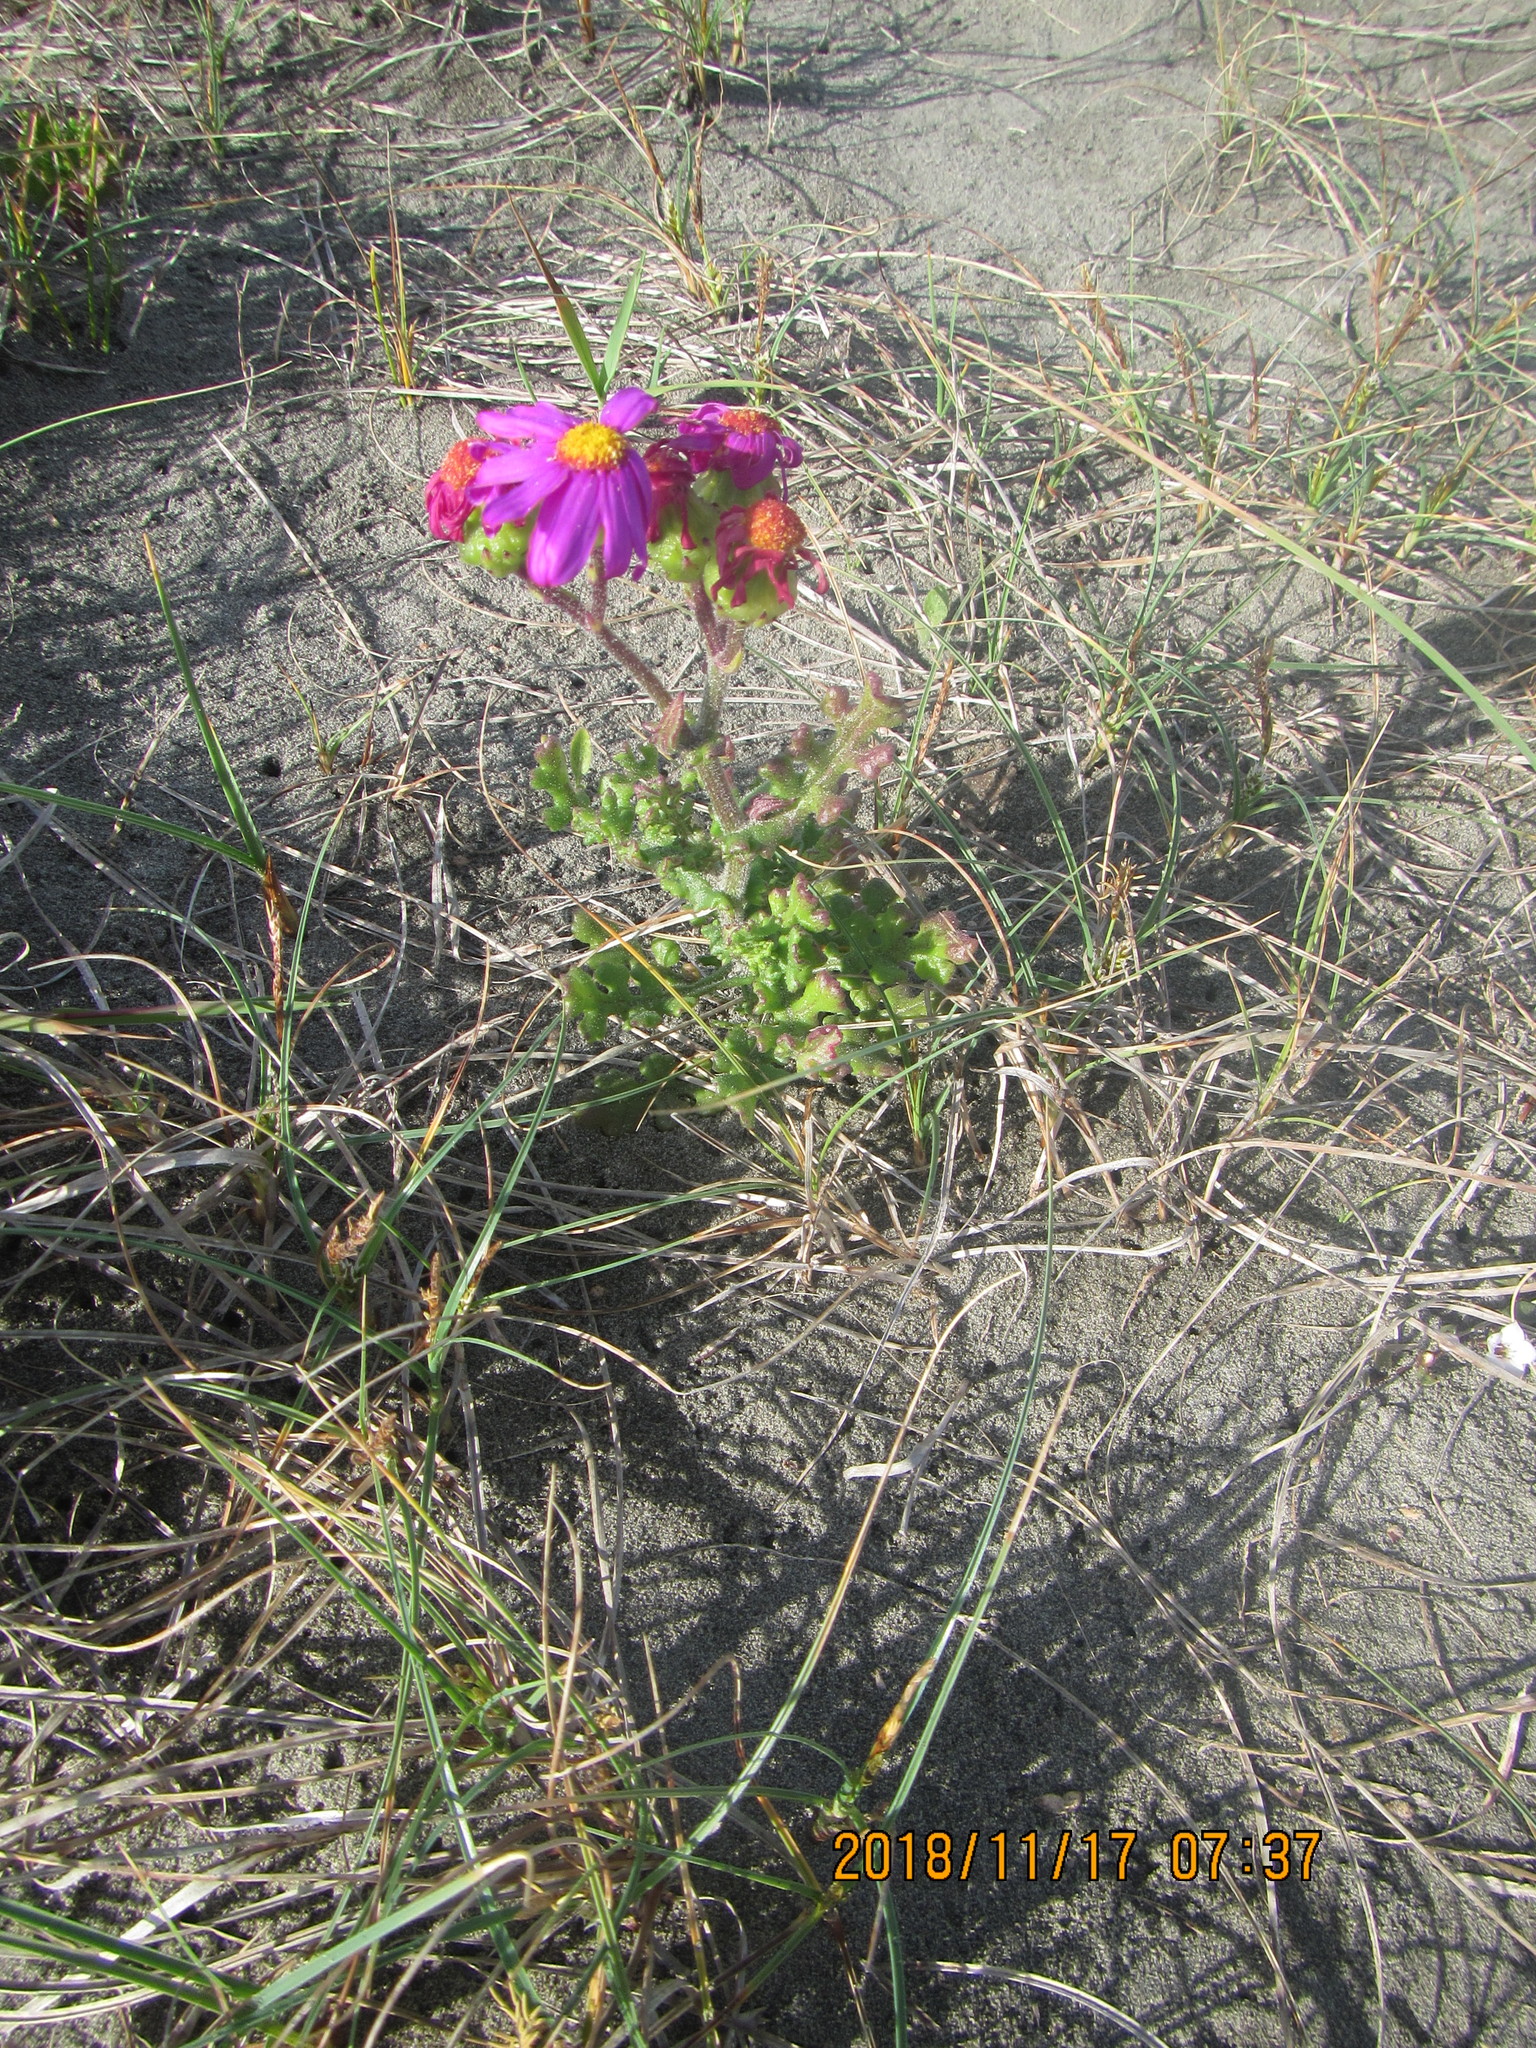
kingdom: Plantae
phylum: Tracheophyta
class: Magnoliopsida
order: Asterales
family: Asteraceae
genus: Senecio
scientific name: Senecio elegans
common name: Purple groundsel
